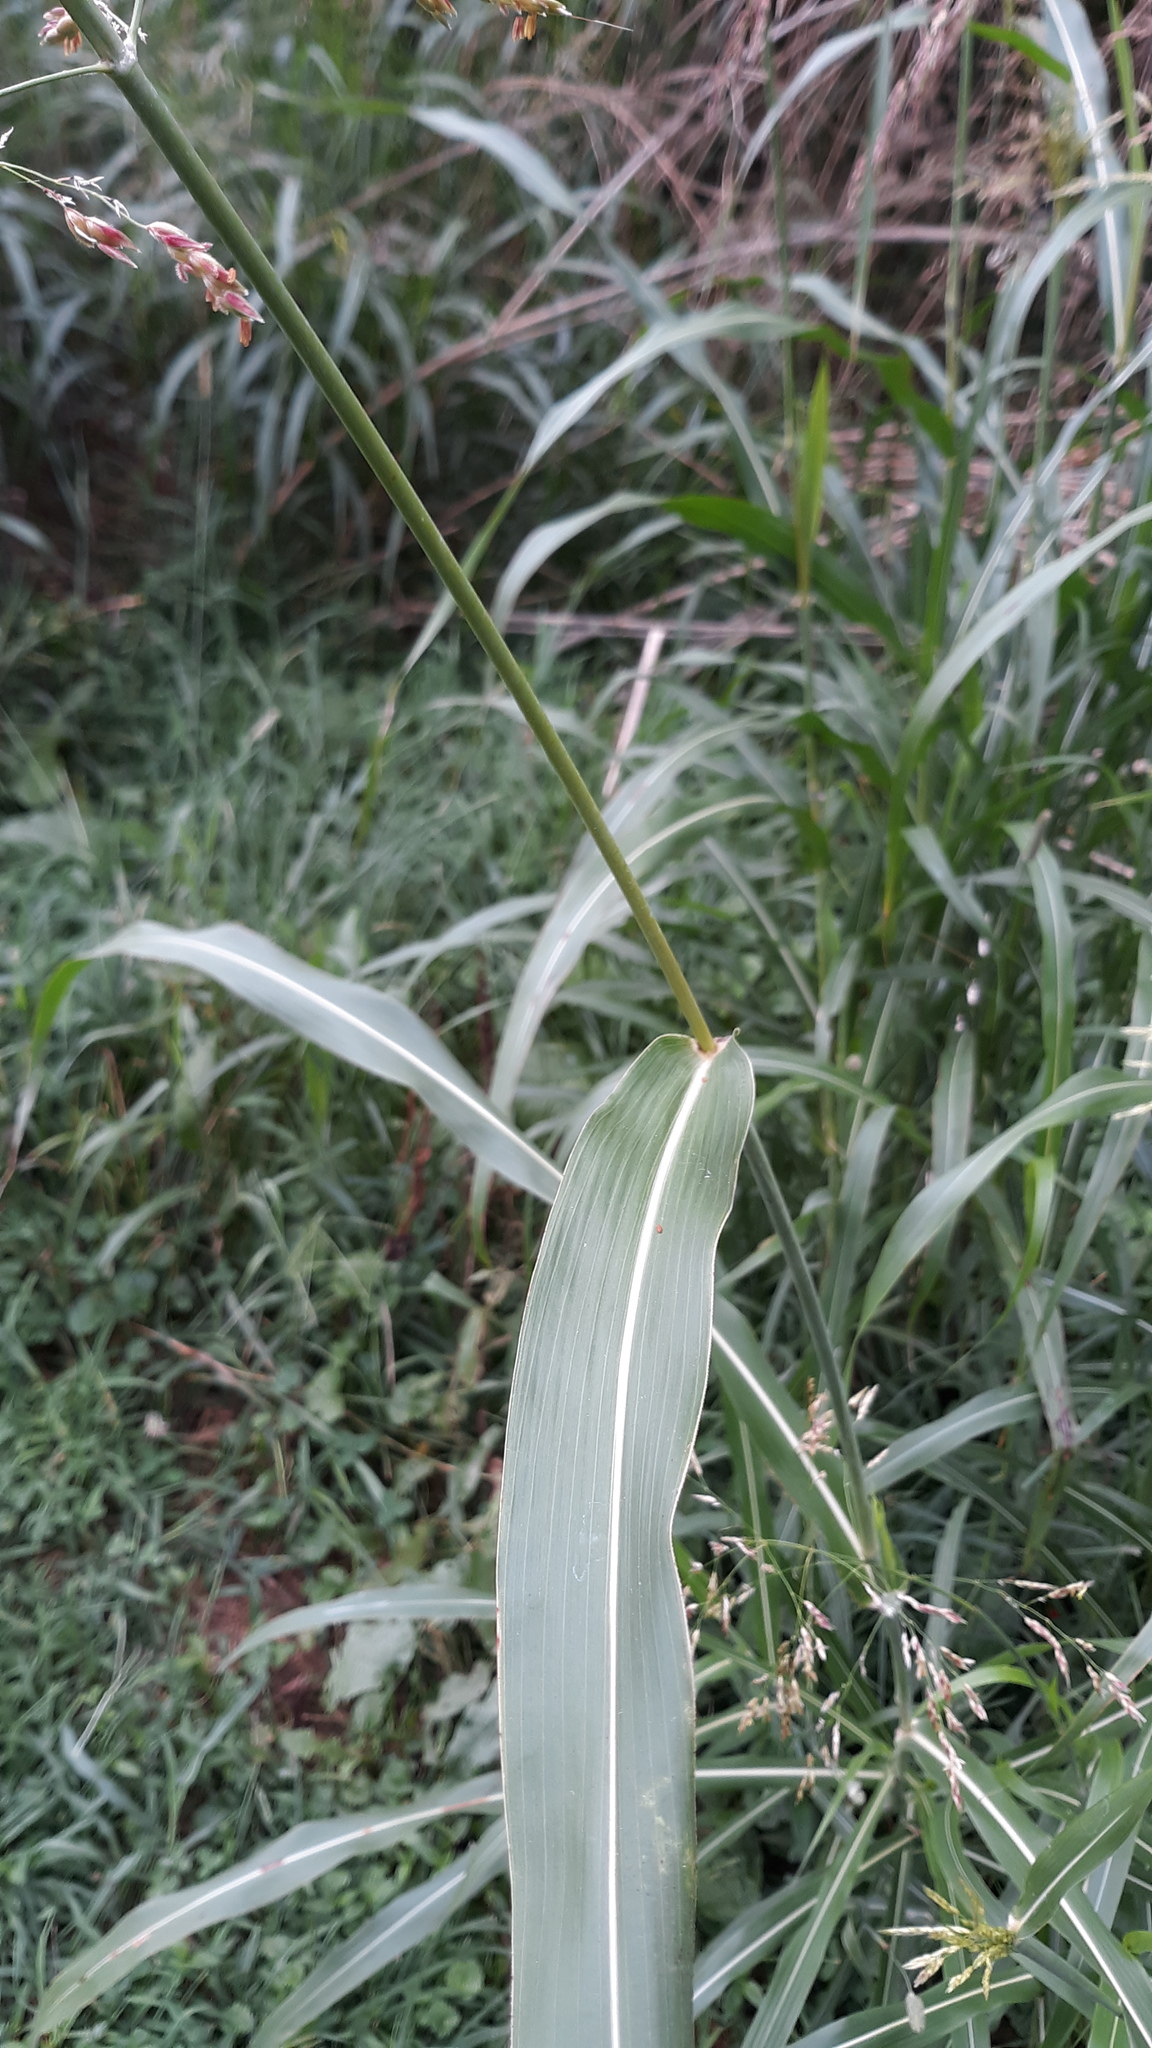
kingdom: Plantae
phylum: Tracheophyta
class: Liliopsida
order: Poales
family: Poaceae
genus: Sorghum
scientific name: Sorghum halepense
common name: Johnson-grass
